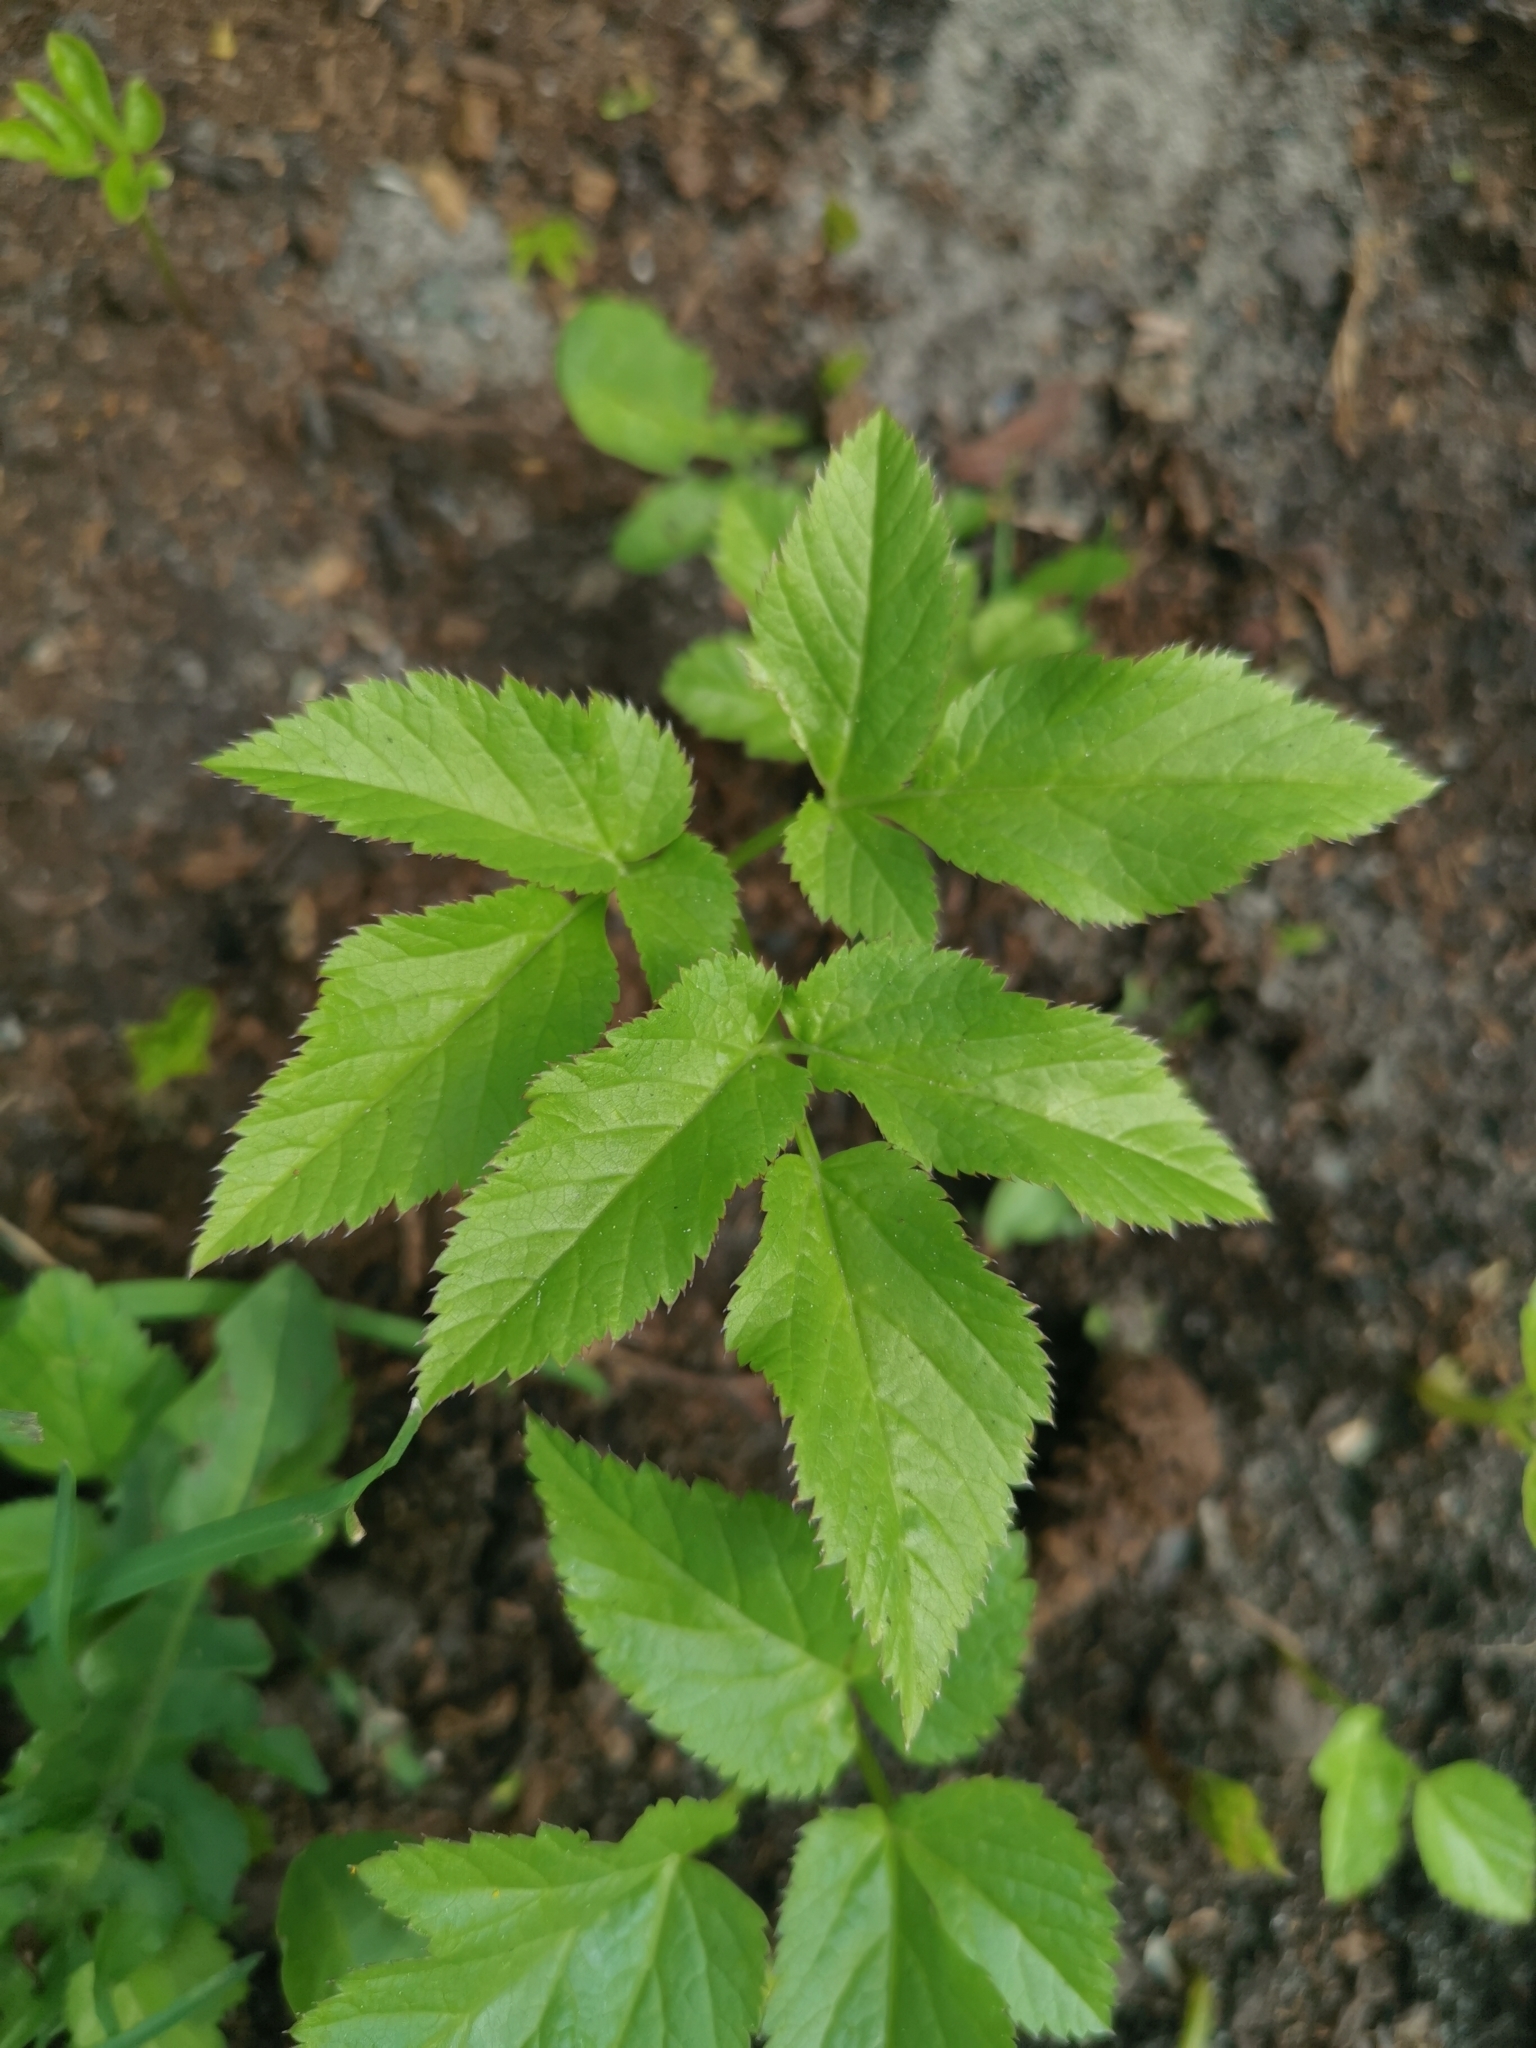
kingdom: Plantae
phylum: Tracheophyta
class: Magnoliopsida
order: Apiales
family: Apiaceae
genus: Aegopodium
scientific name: Aegopodium podagraria
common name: Ground-elder
